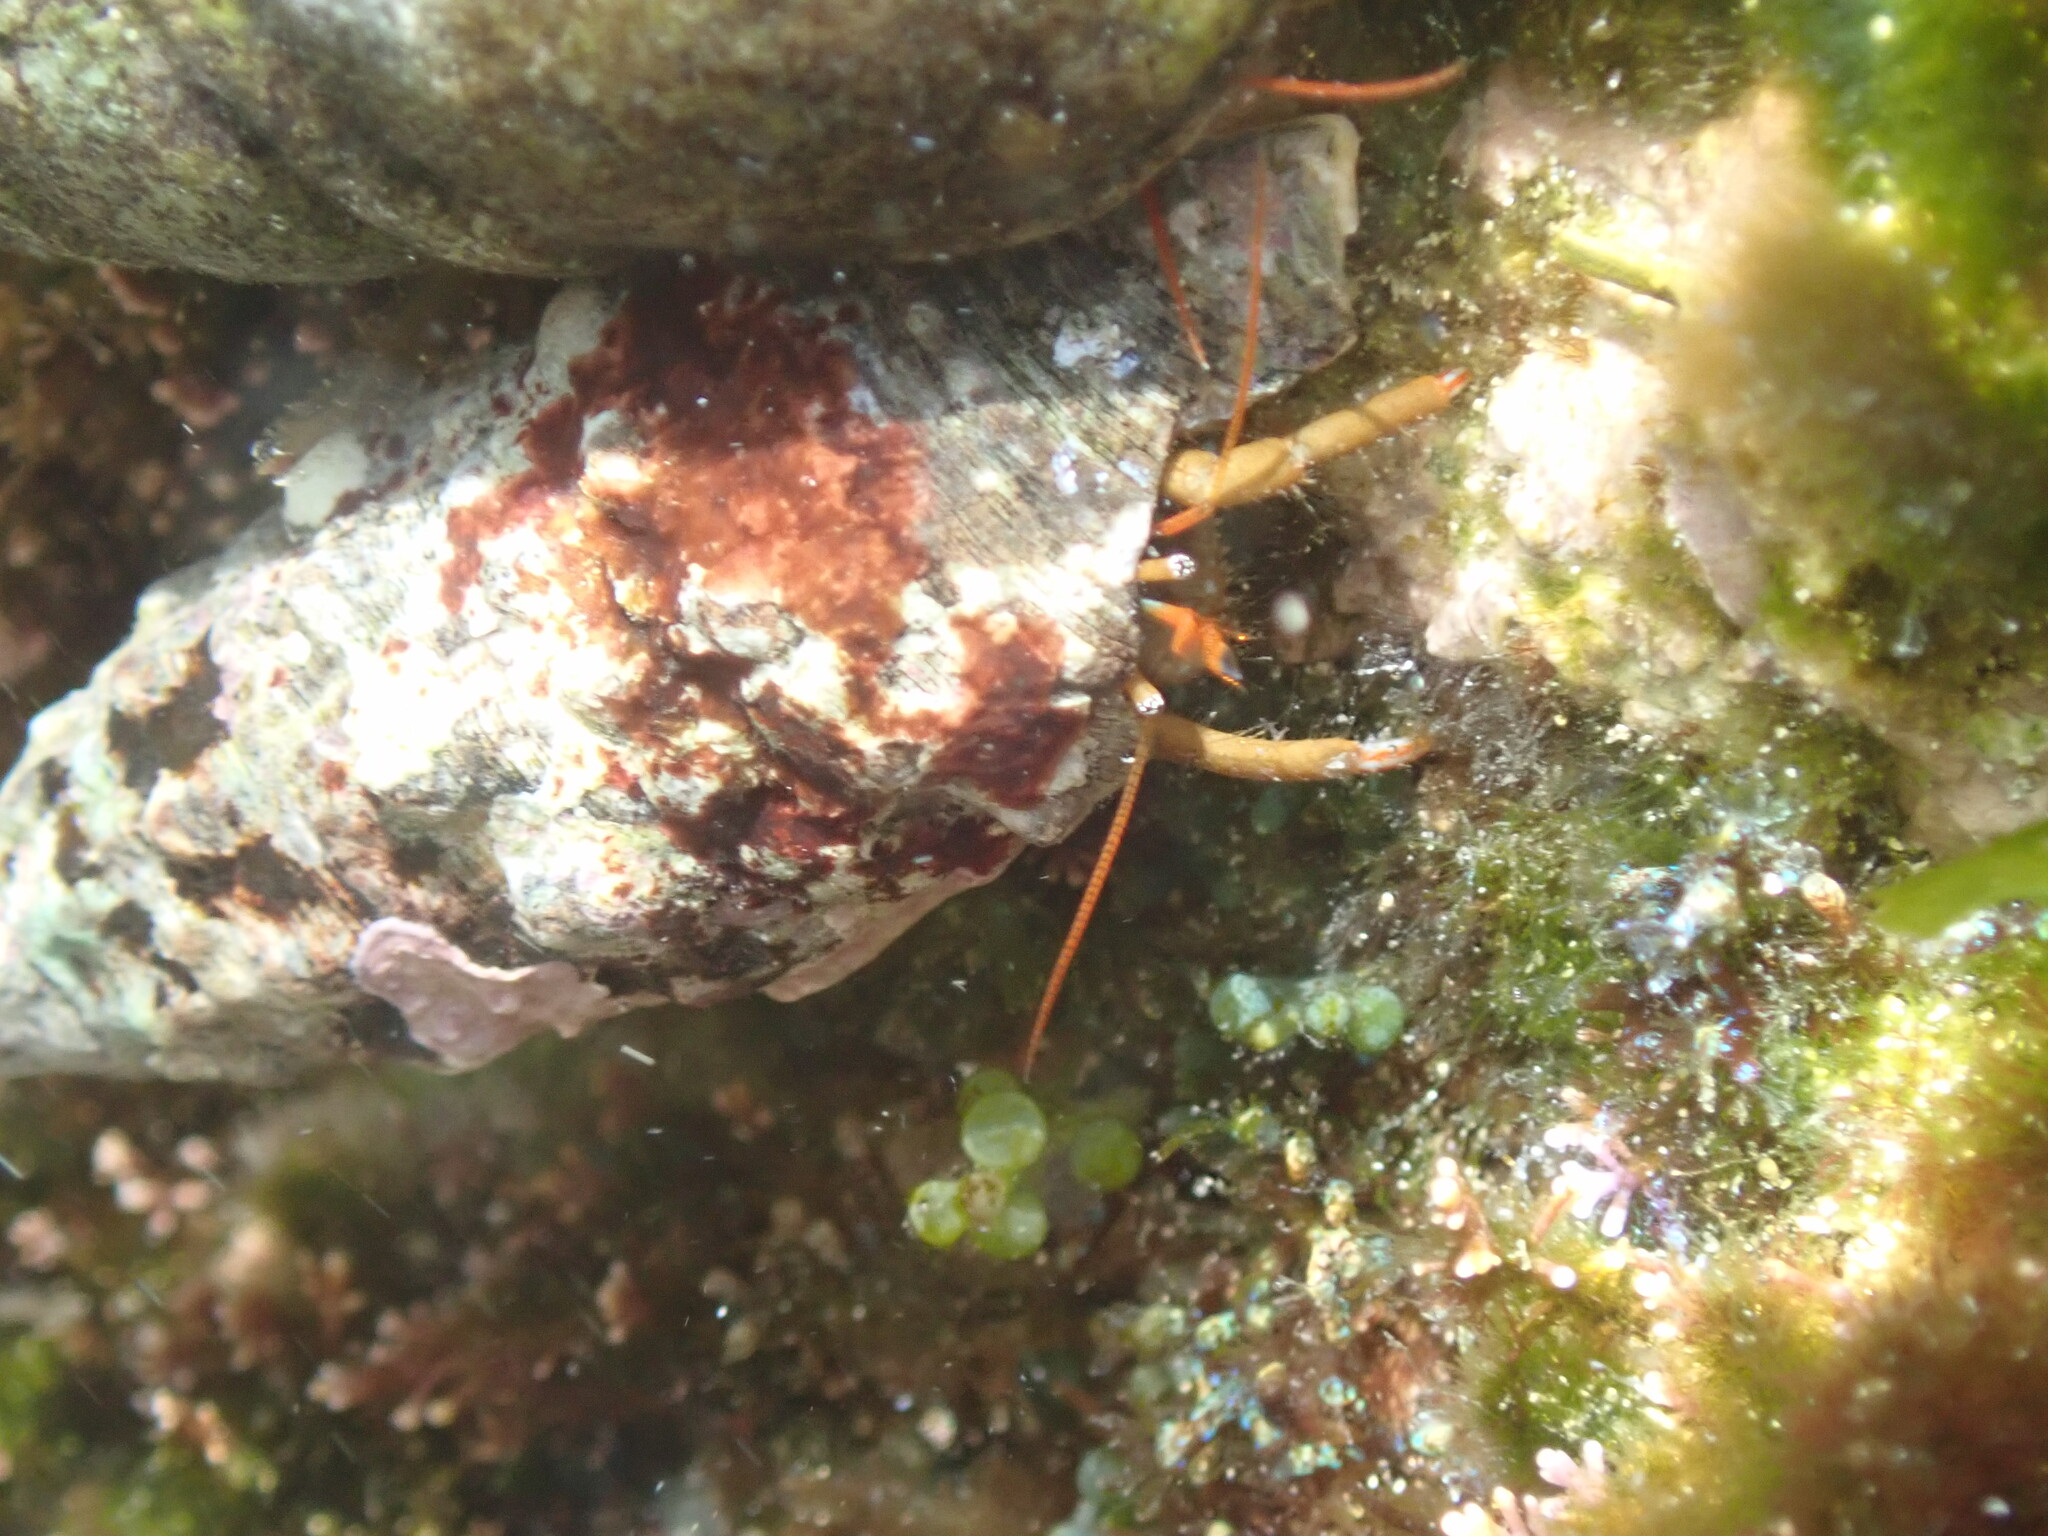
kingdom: Animalia
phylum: Arthropoda
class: Malacostraca
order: Decapoda
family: Diogenidae
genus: Clibanarius
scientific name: Clibanarius erythropus
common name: Hermit crab
